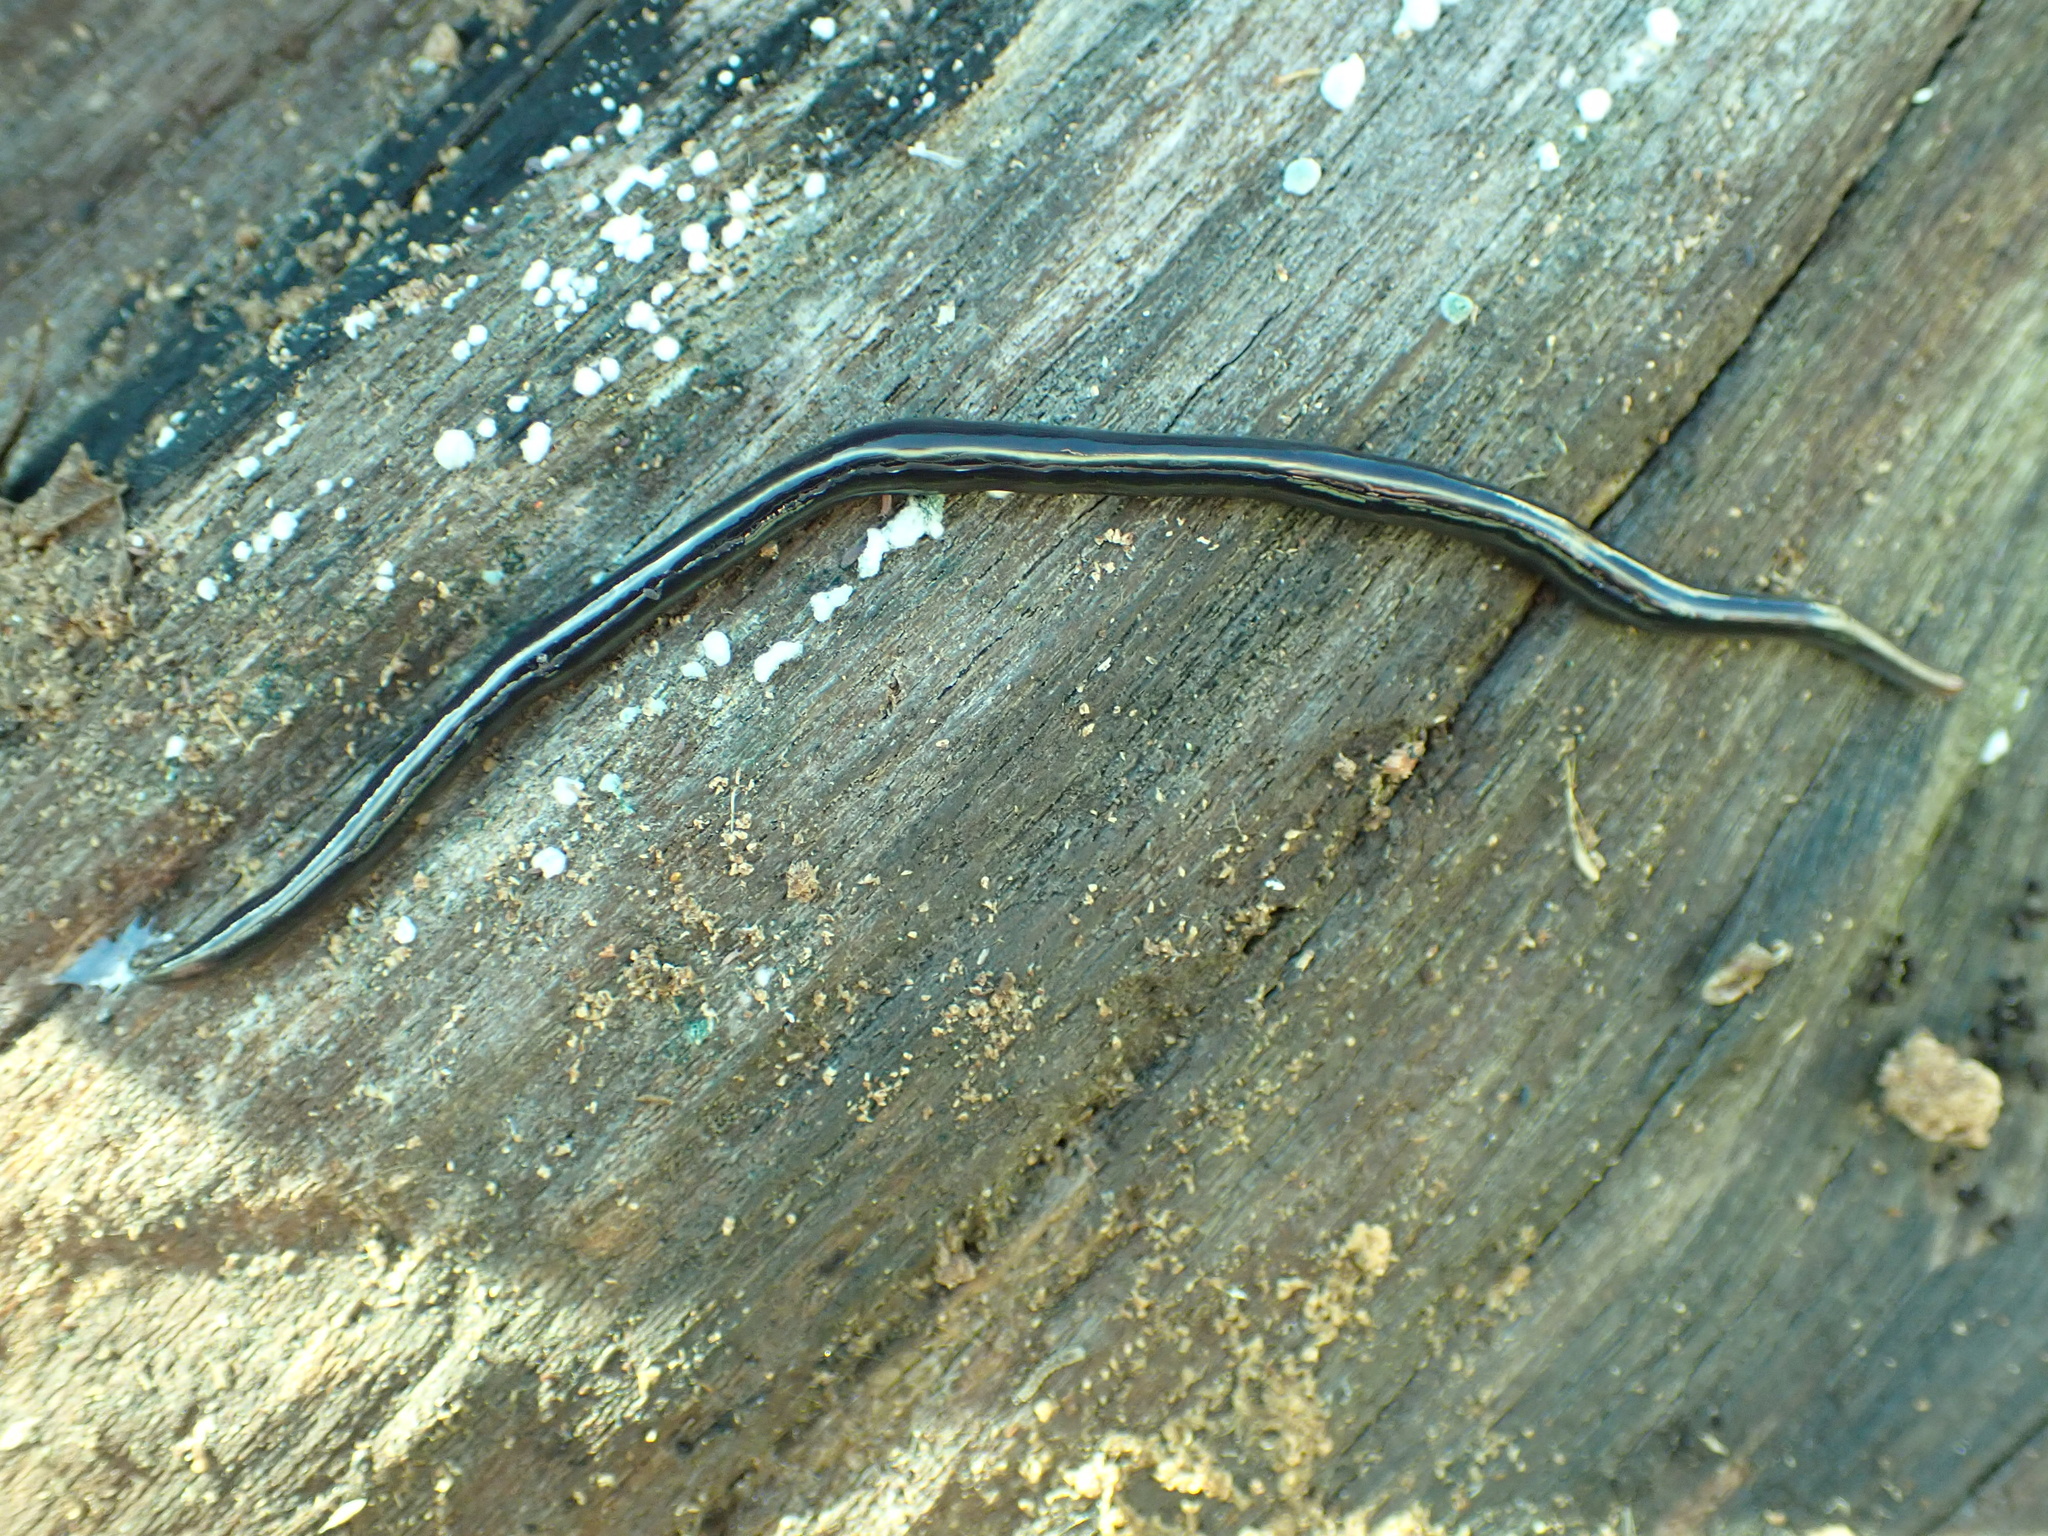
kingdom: Animalia
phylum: Platyhelminthes
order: Tricladida
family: Geoplanidae
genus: Caenoplana
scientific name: Caenoplana coerulea
